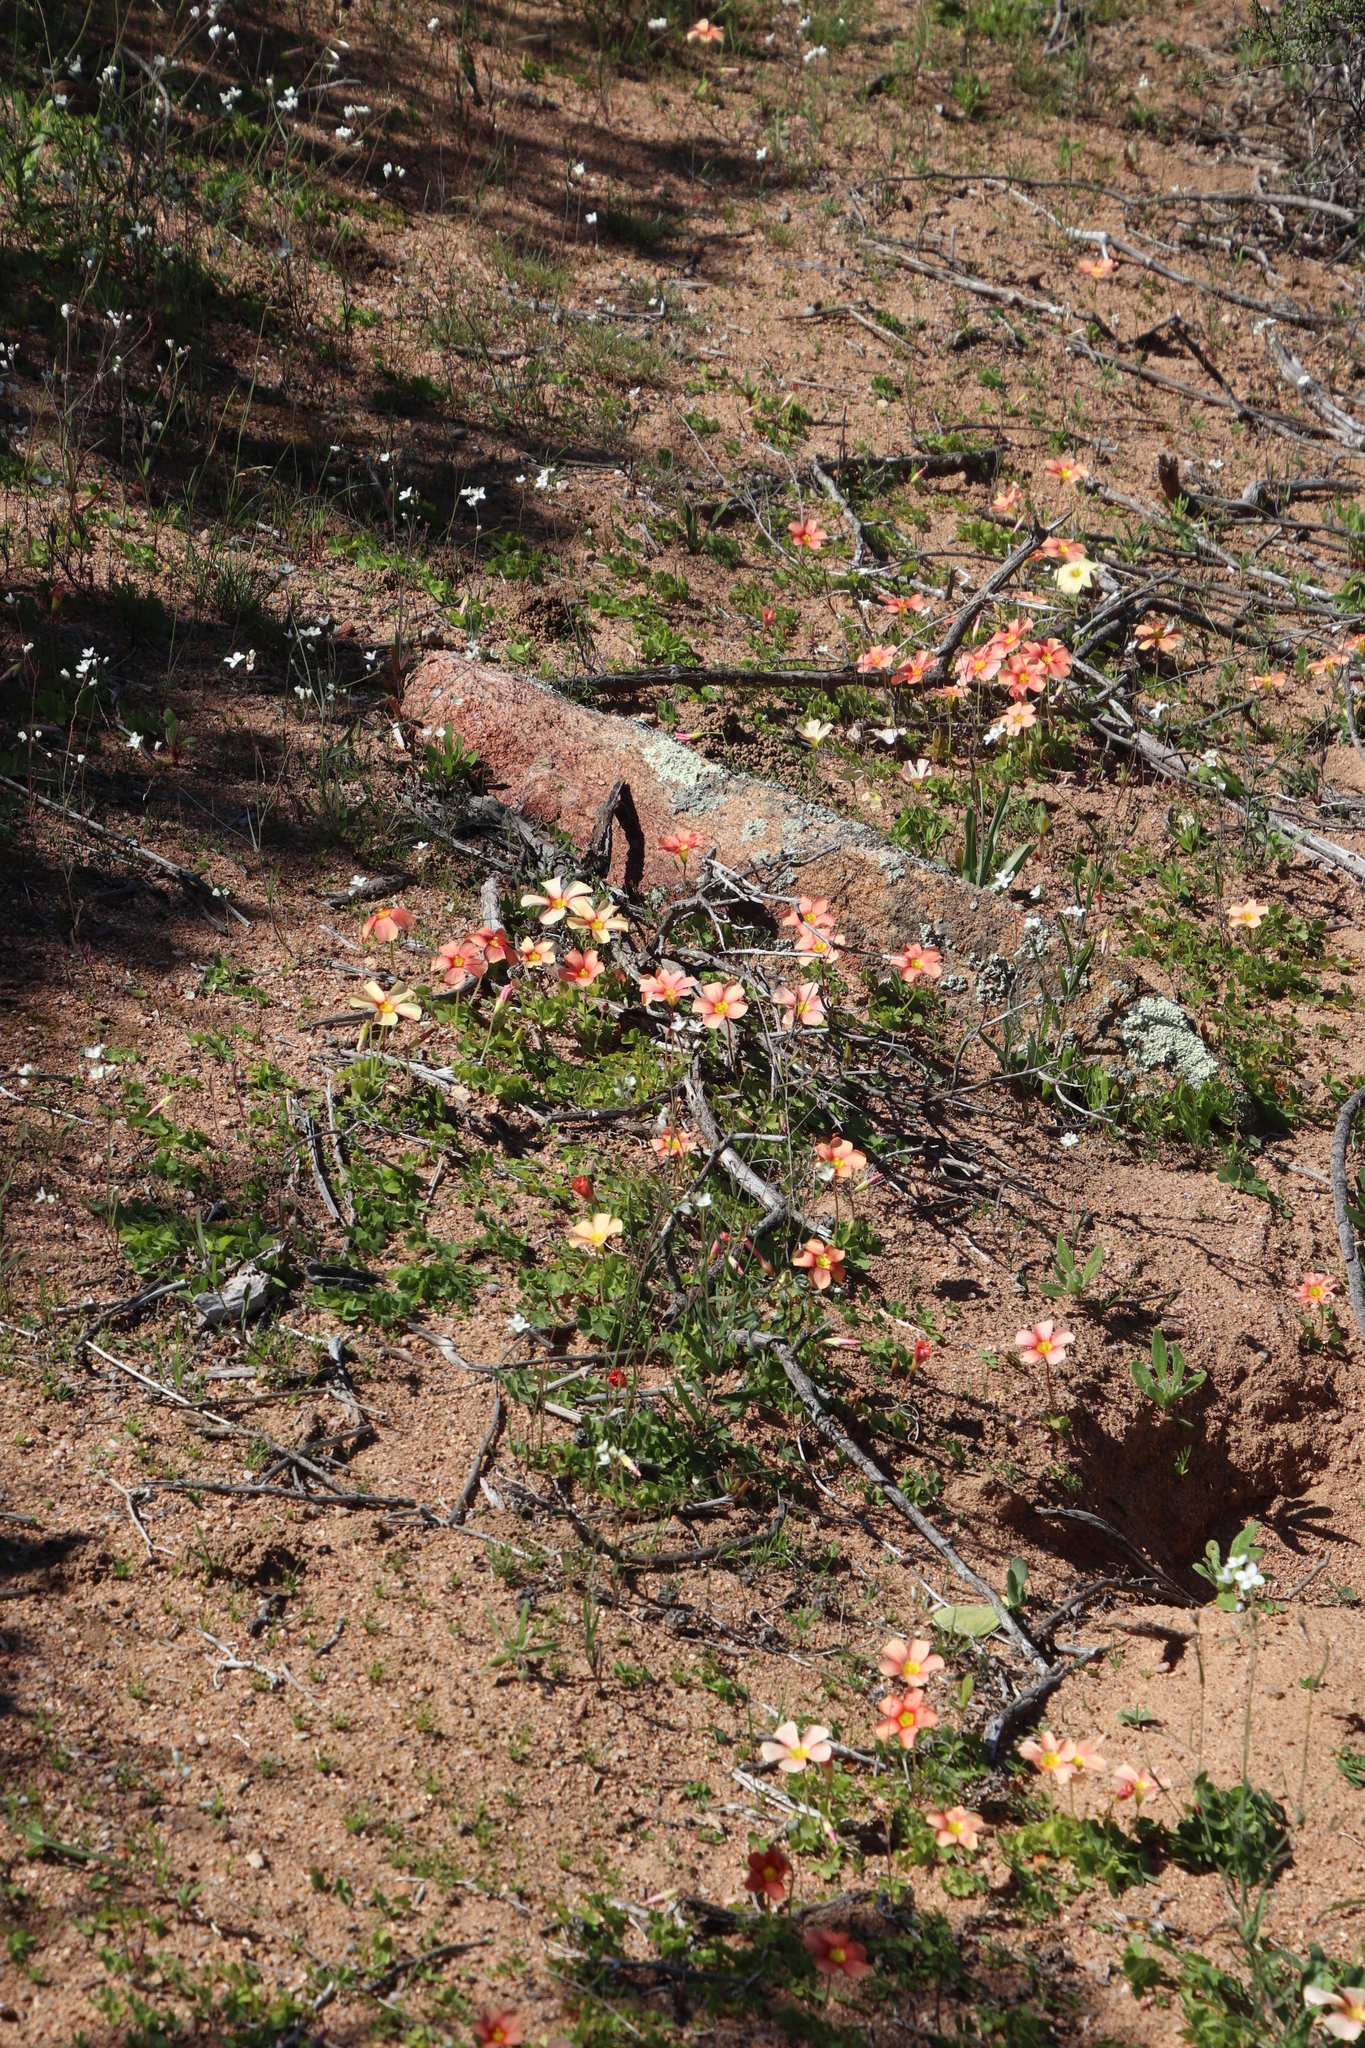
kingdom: Plantae
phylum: Tracheophyta
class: Magnoliopsida
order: Oxalidales
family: Oxalidaceae
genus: Oxalis
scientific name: Oxalis obtusa
